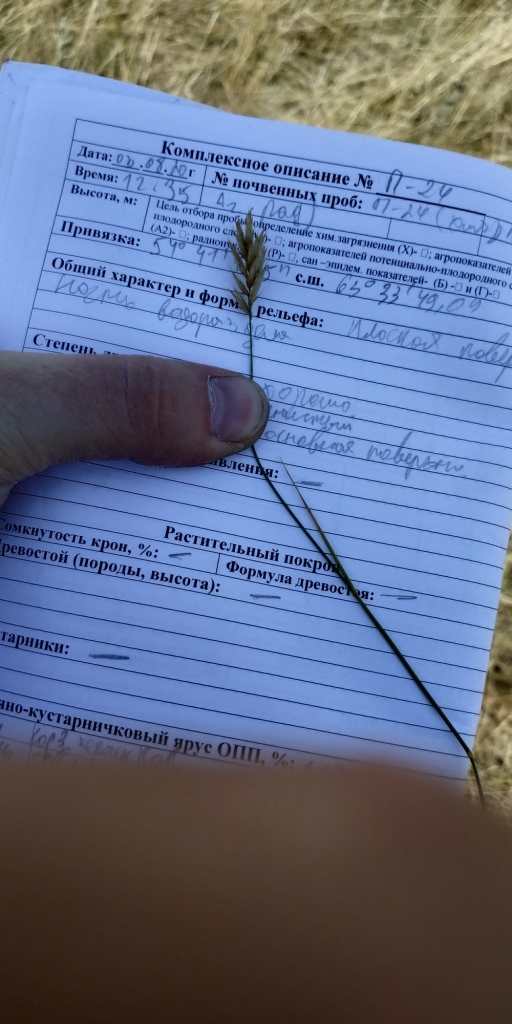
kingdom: Plantae
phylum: Tracheophyta
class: Liliopsida
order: Poales
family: Poaceae
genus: Agropyron
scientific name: Agropyron cristatum
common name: Crested wheatgrass
